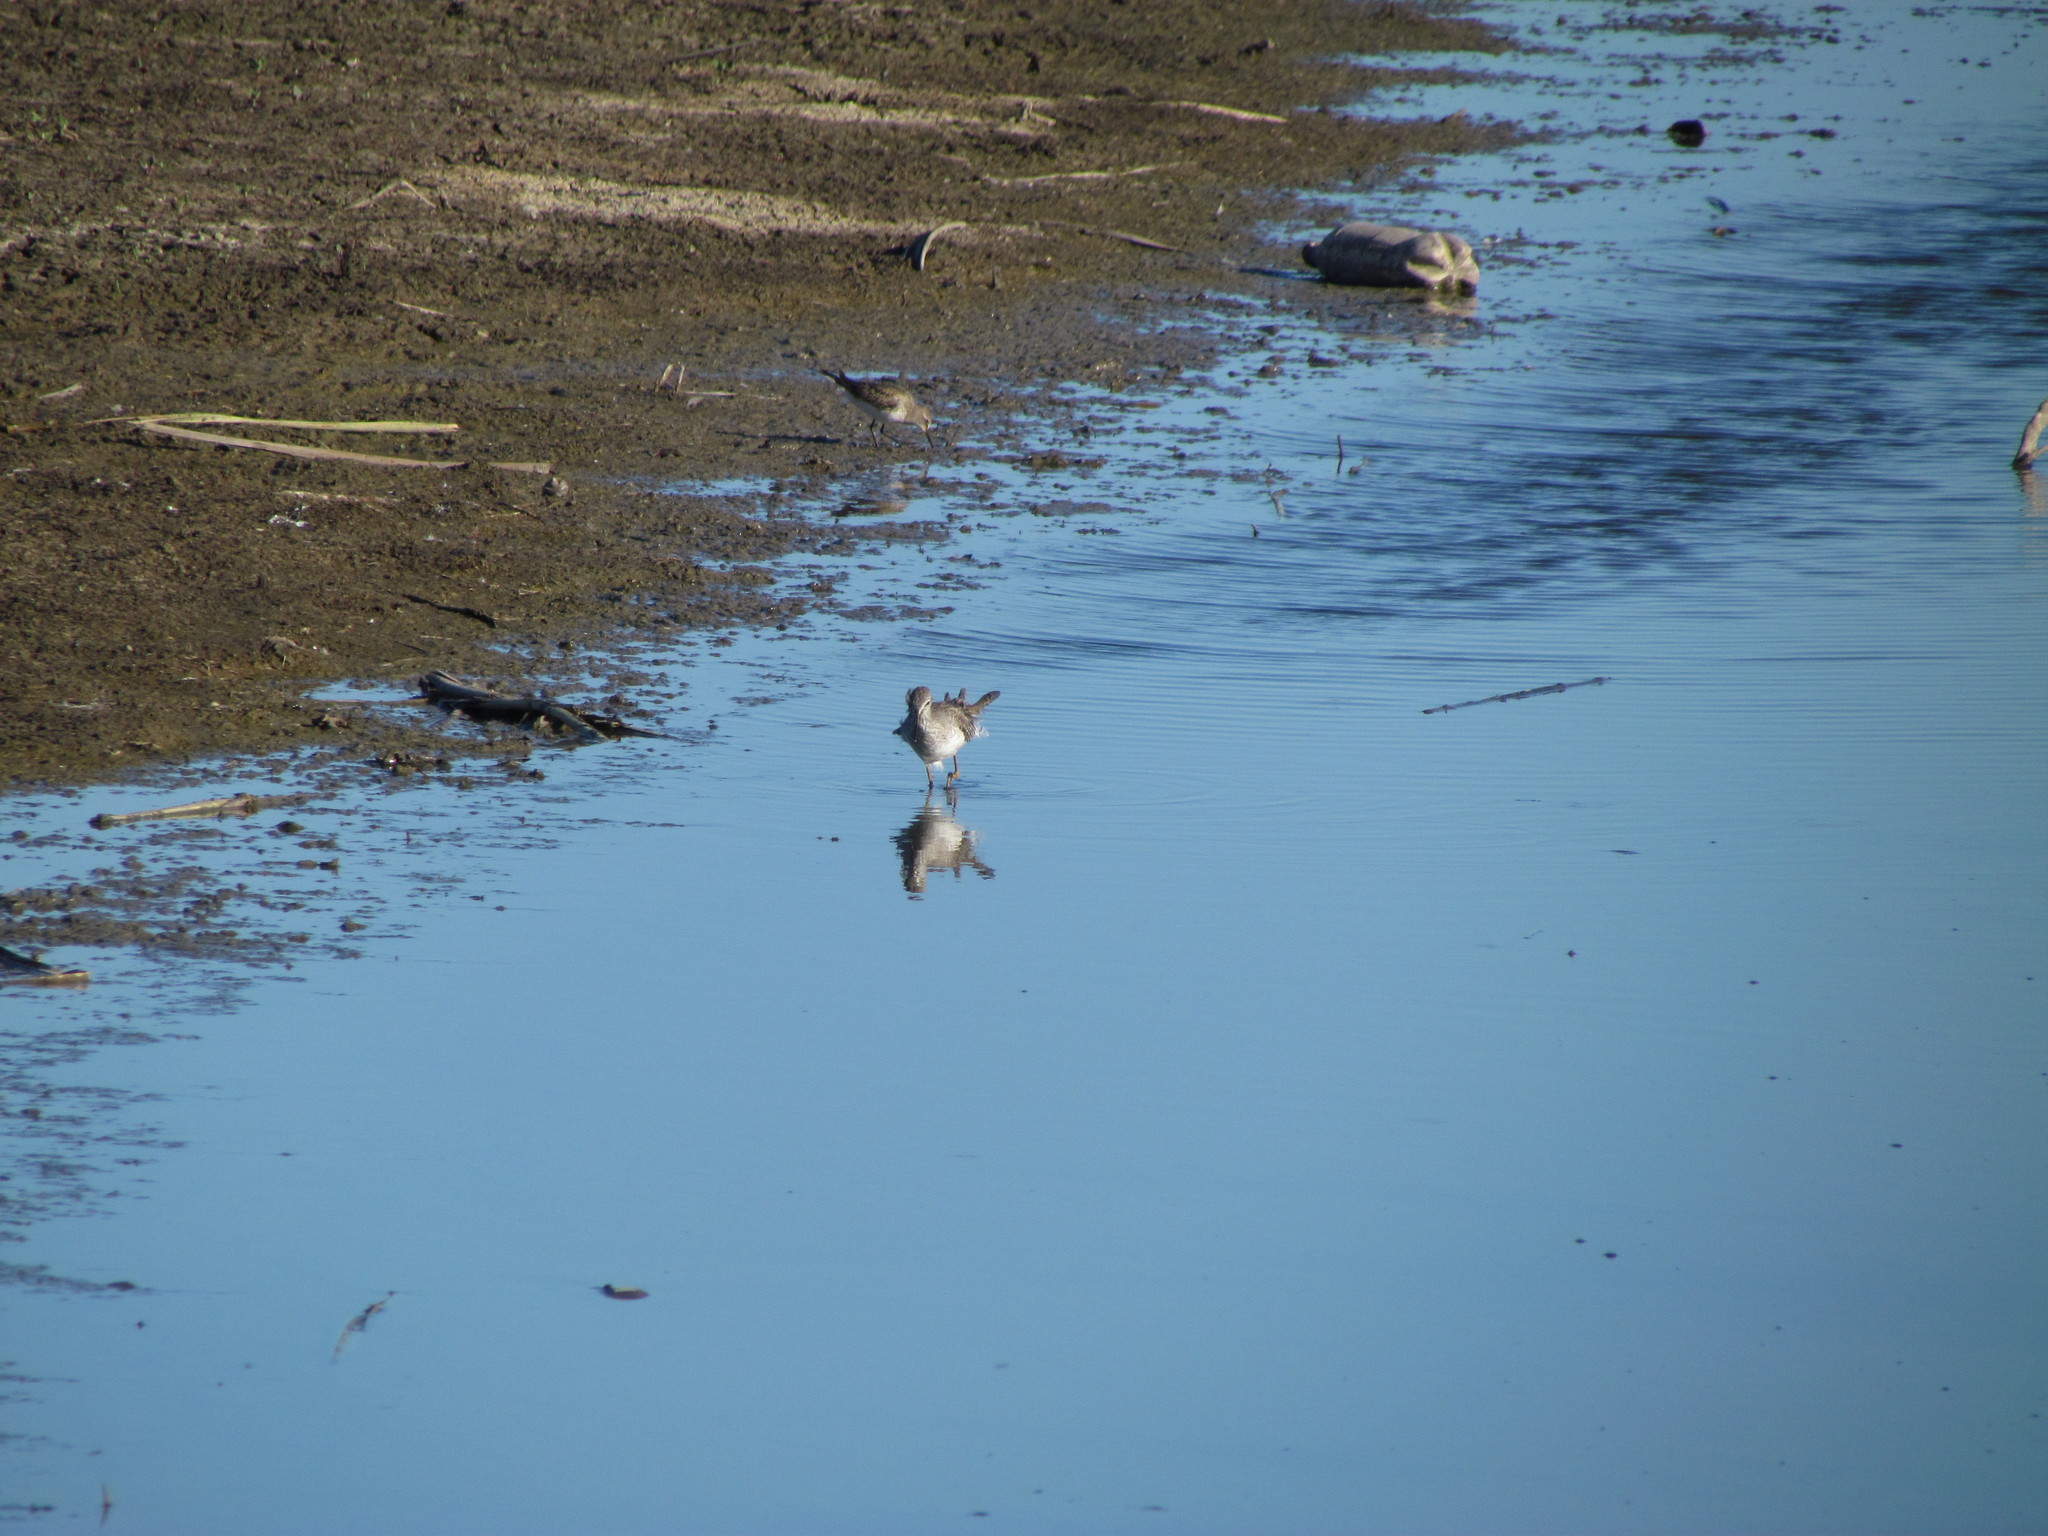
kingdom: Animalia
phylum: Chordata
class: Aves
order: Charadriiformes
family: Scolopacidae
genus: Calidris
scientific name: Calidris fuscicollis
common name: White-rumped sandpiper
